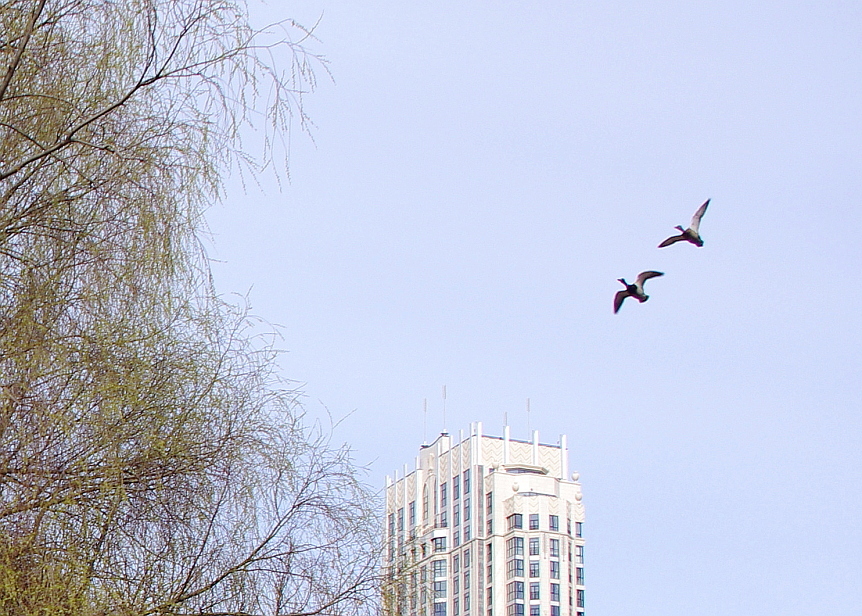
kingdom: Animalia
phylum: Chordata
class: Aves
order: Anseriformes
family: Anatidae
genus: Anas
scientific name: Anas platyrhynchos
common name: Mallard
